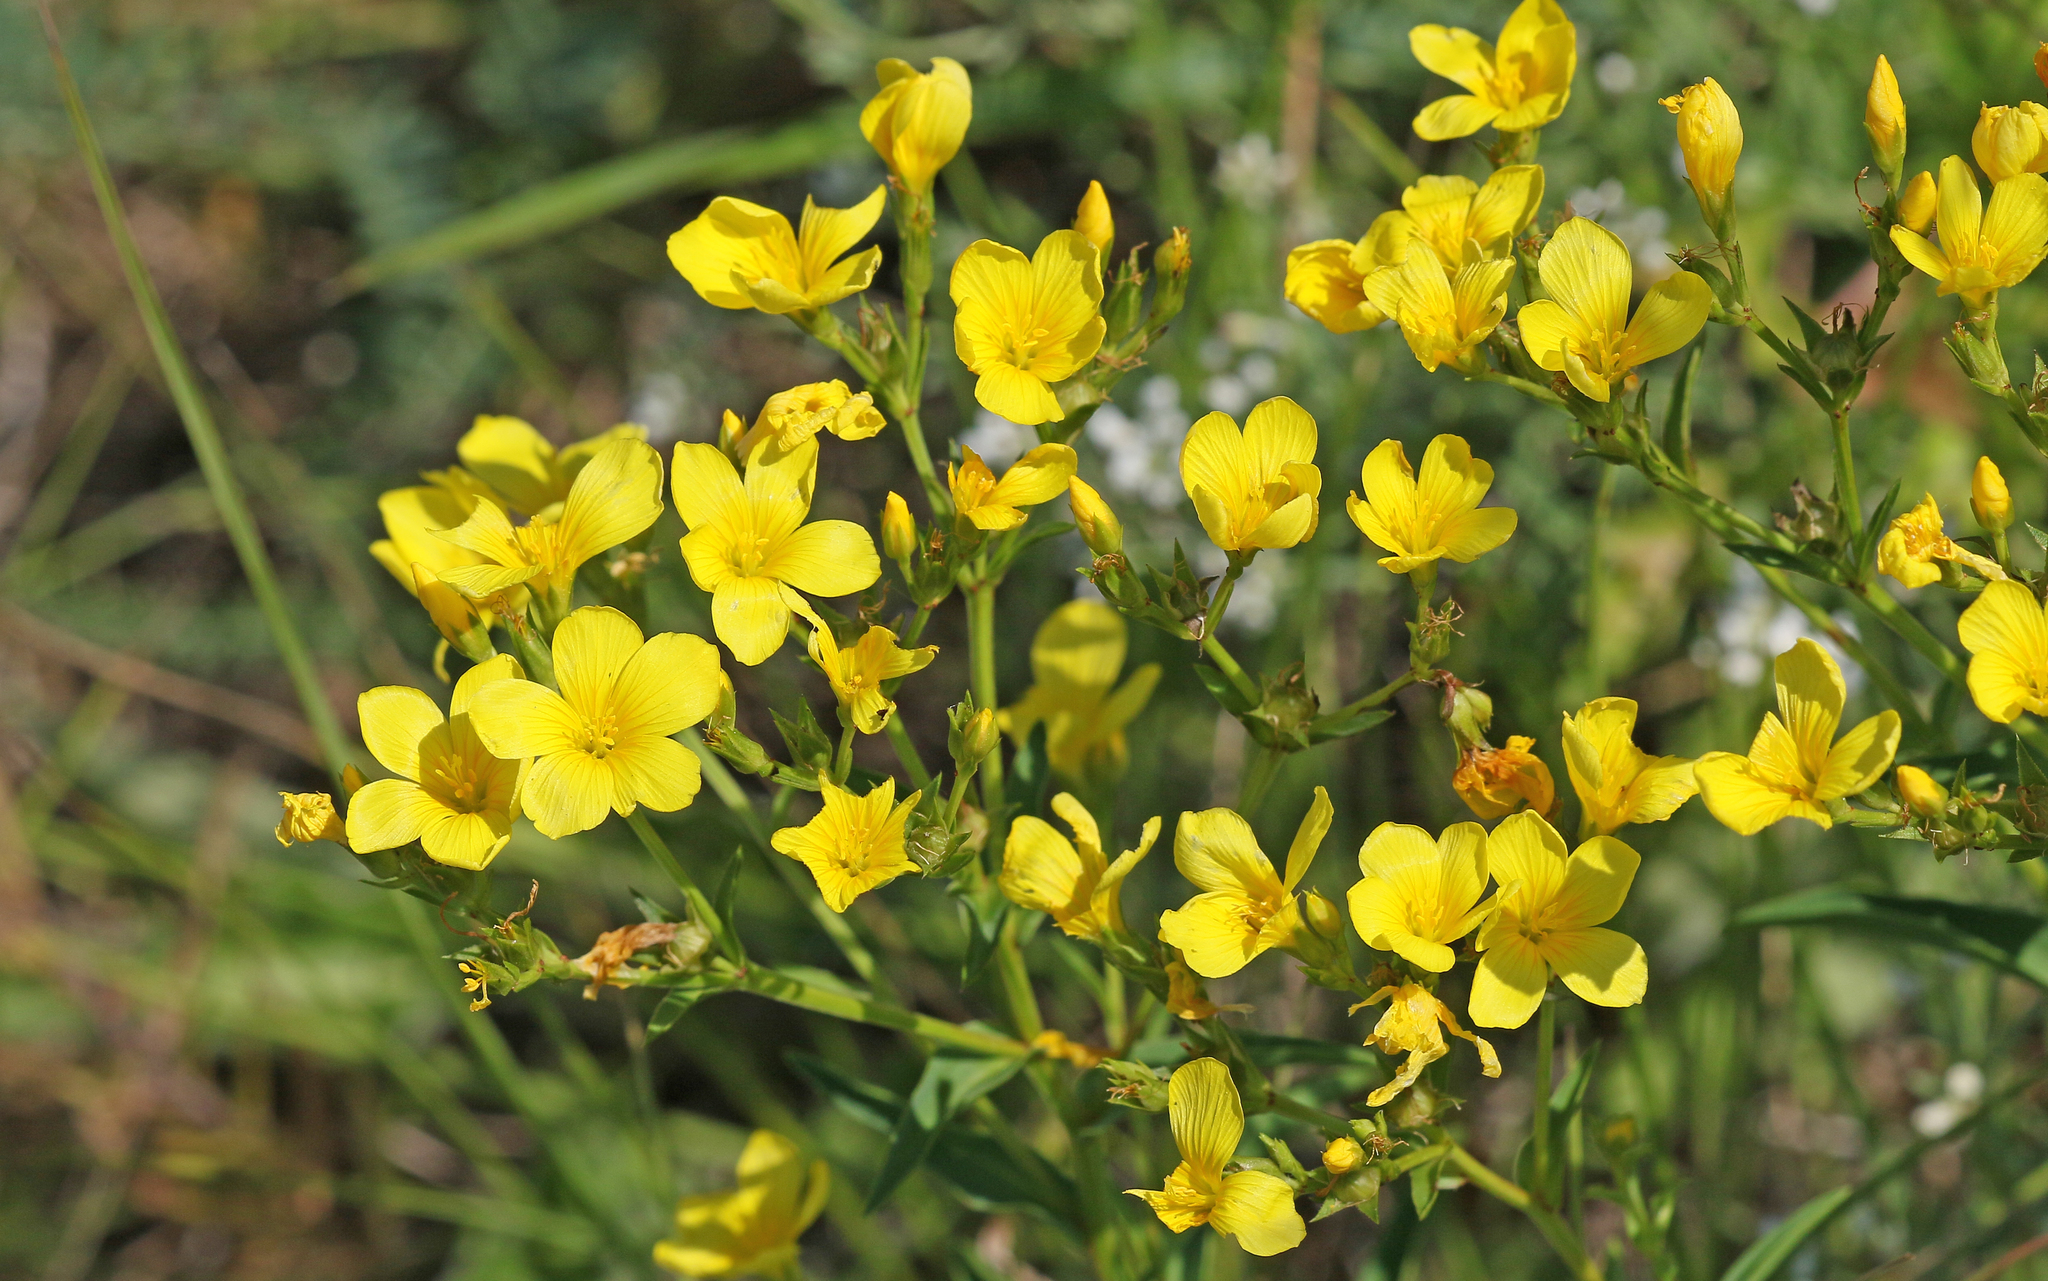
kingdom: Plantae
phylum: Tracheophyta
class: Magnoliopsida
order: Malpighiales
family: Linaceae
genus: Linum
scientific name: Linum flavum
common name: Yellow flax
